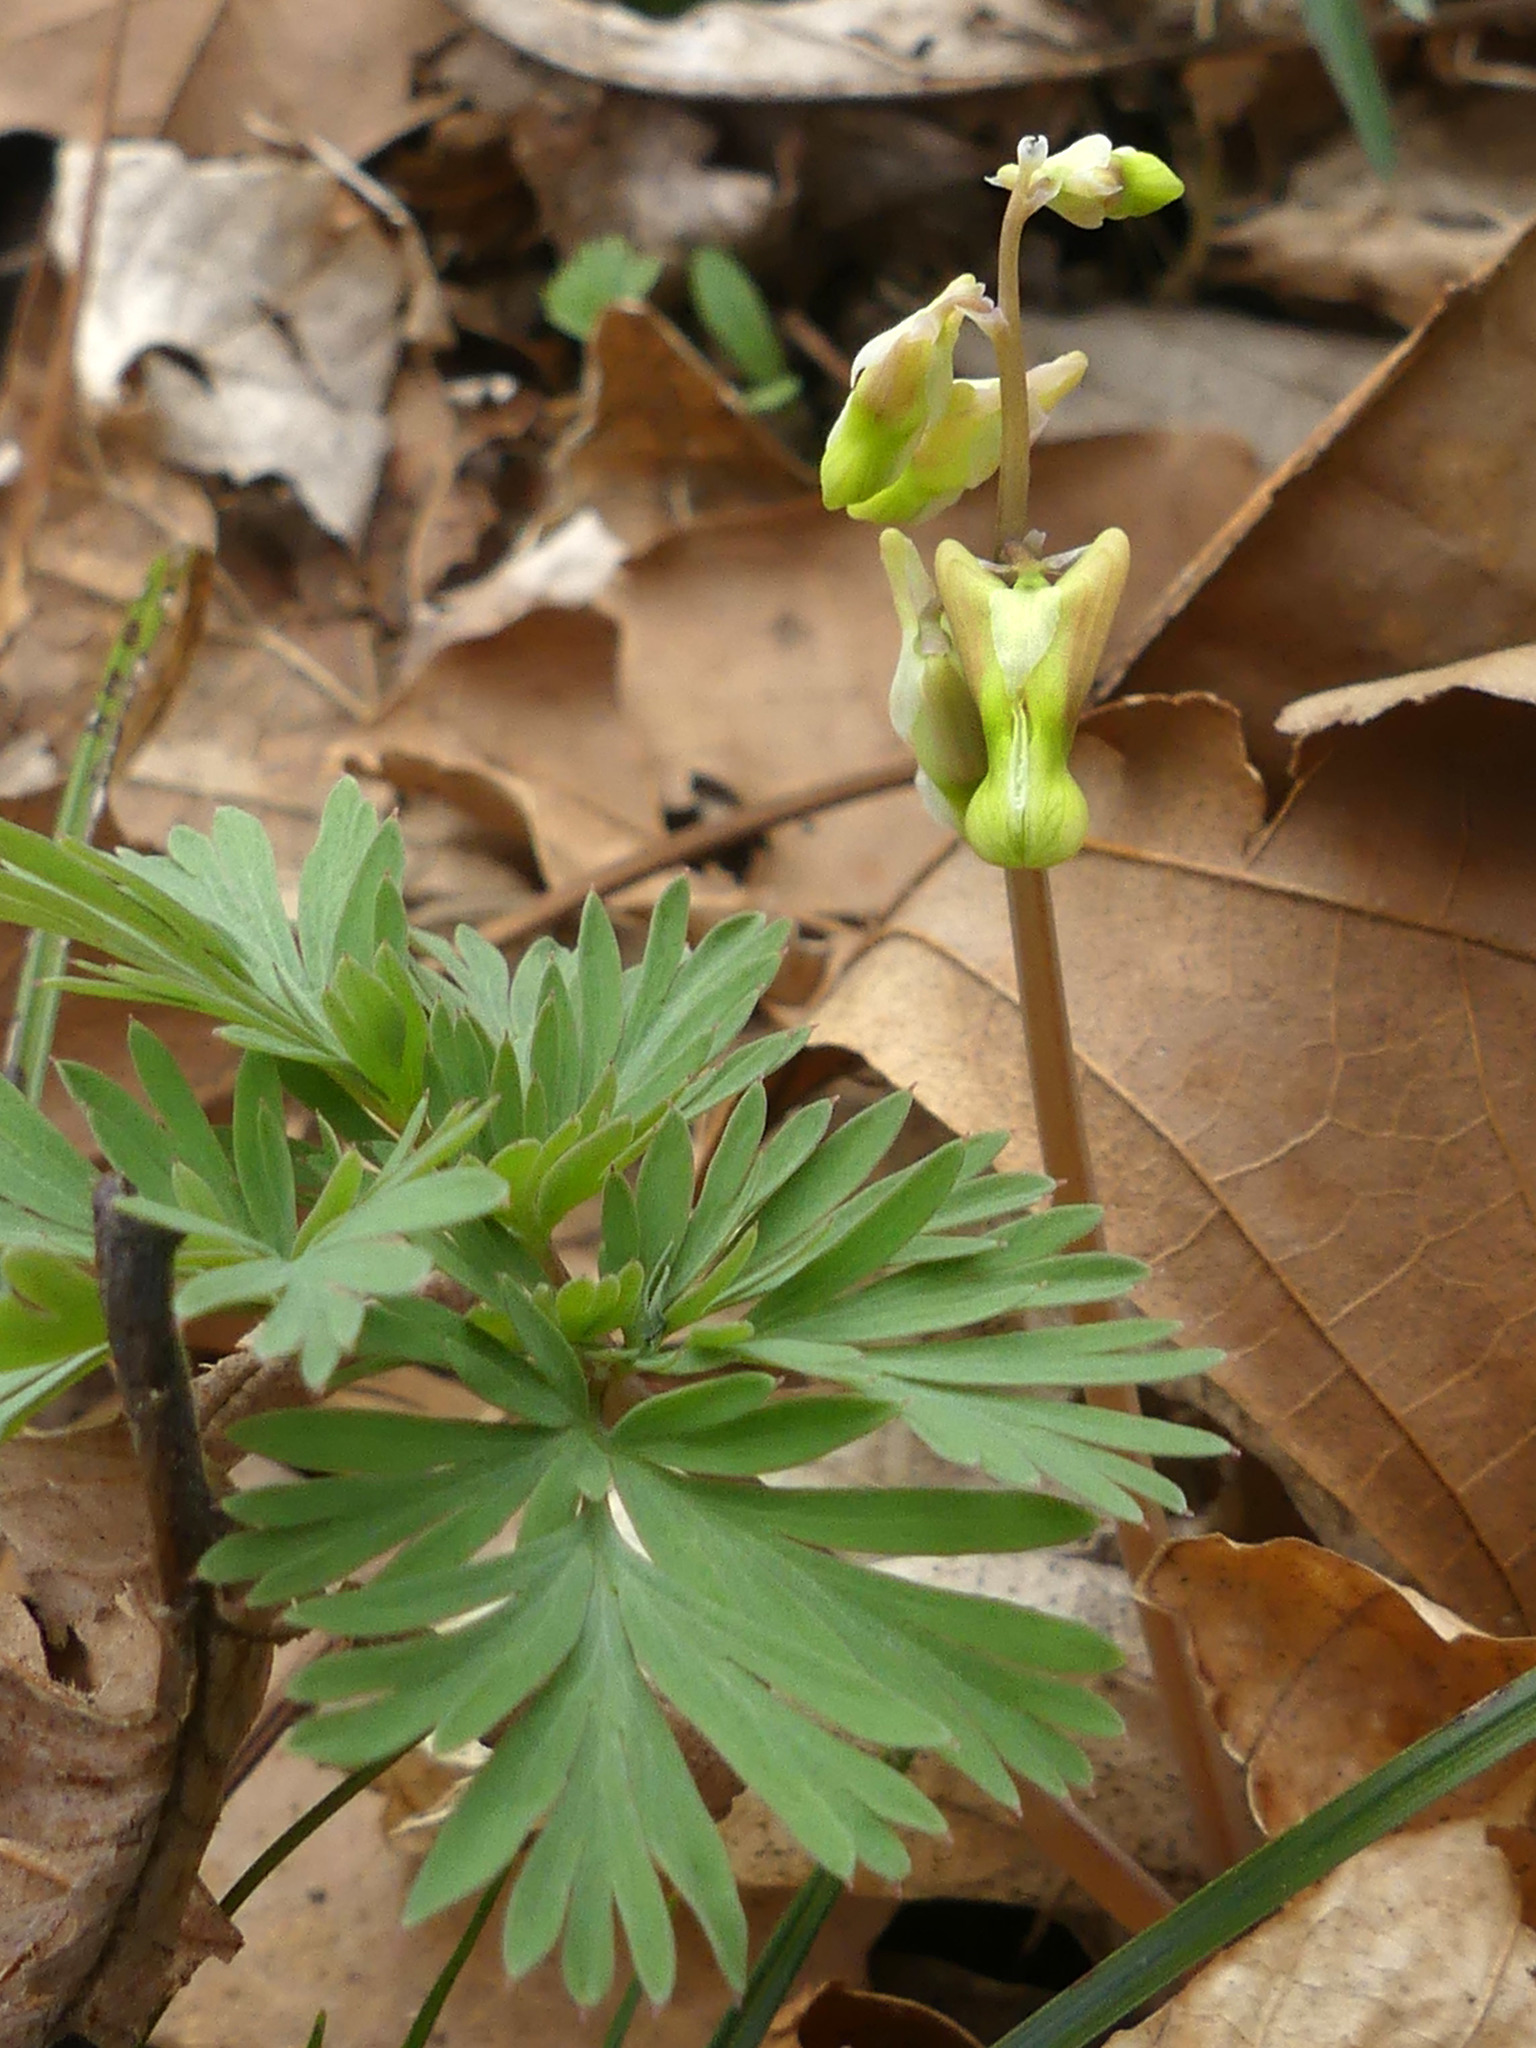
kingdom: Plantae
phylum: Tracheophyta
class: Magnoliopsida
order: Ranunculales
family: Papaveraceae
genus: Dicentra
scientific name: Dicentra cucullaria
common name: Dutchman's breeches
